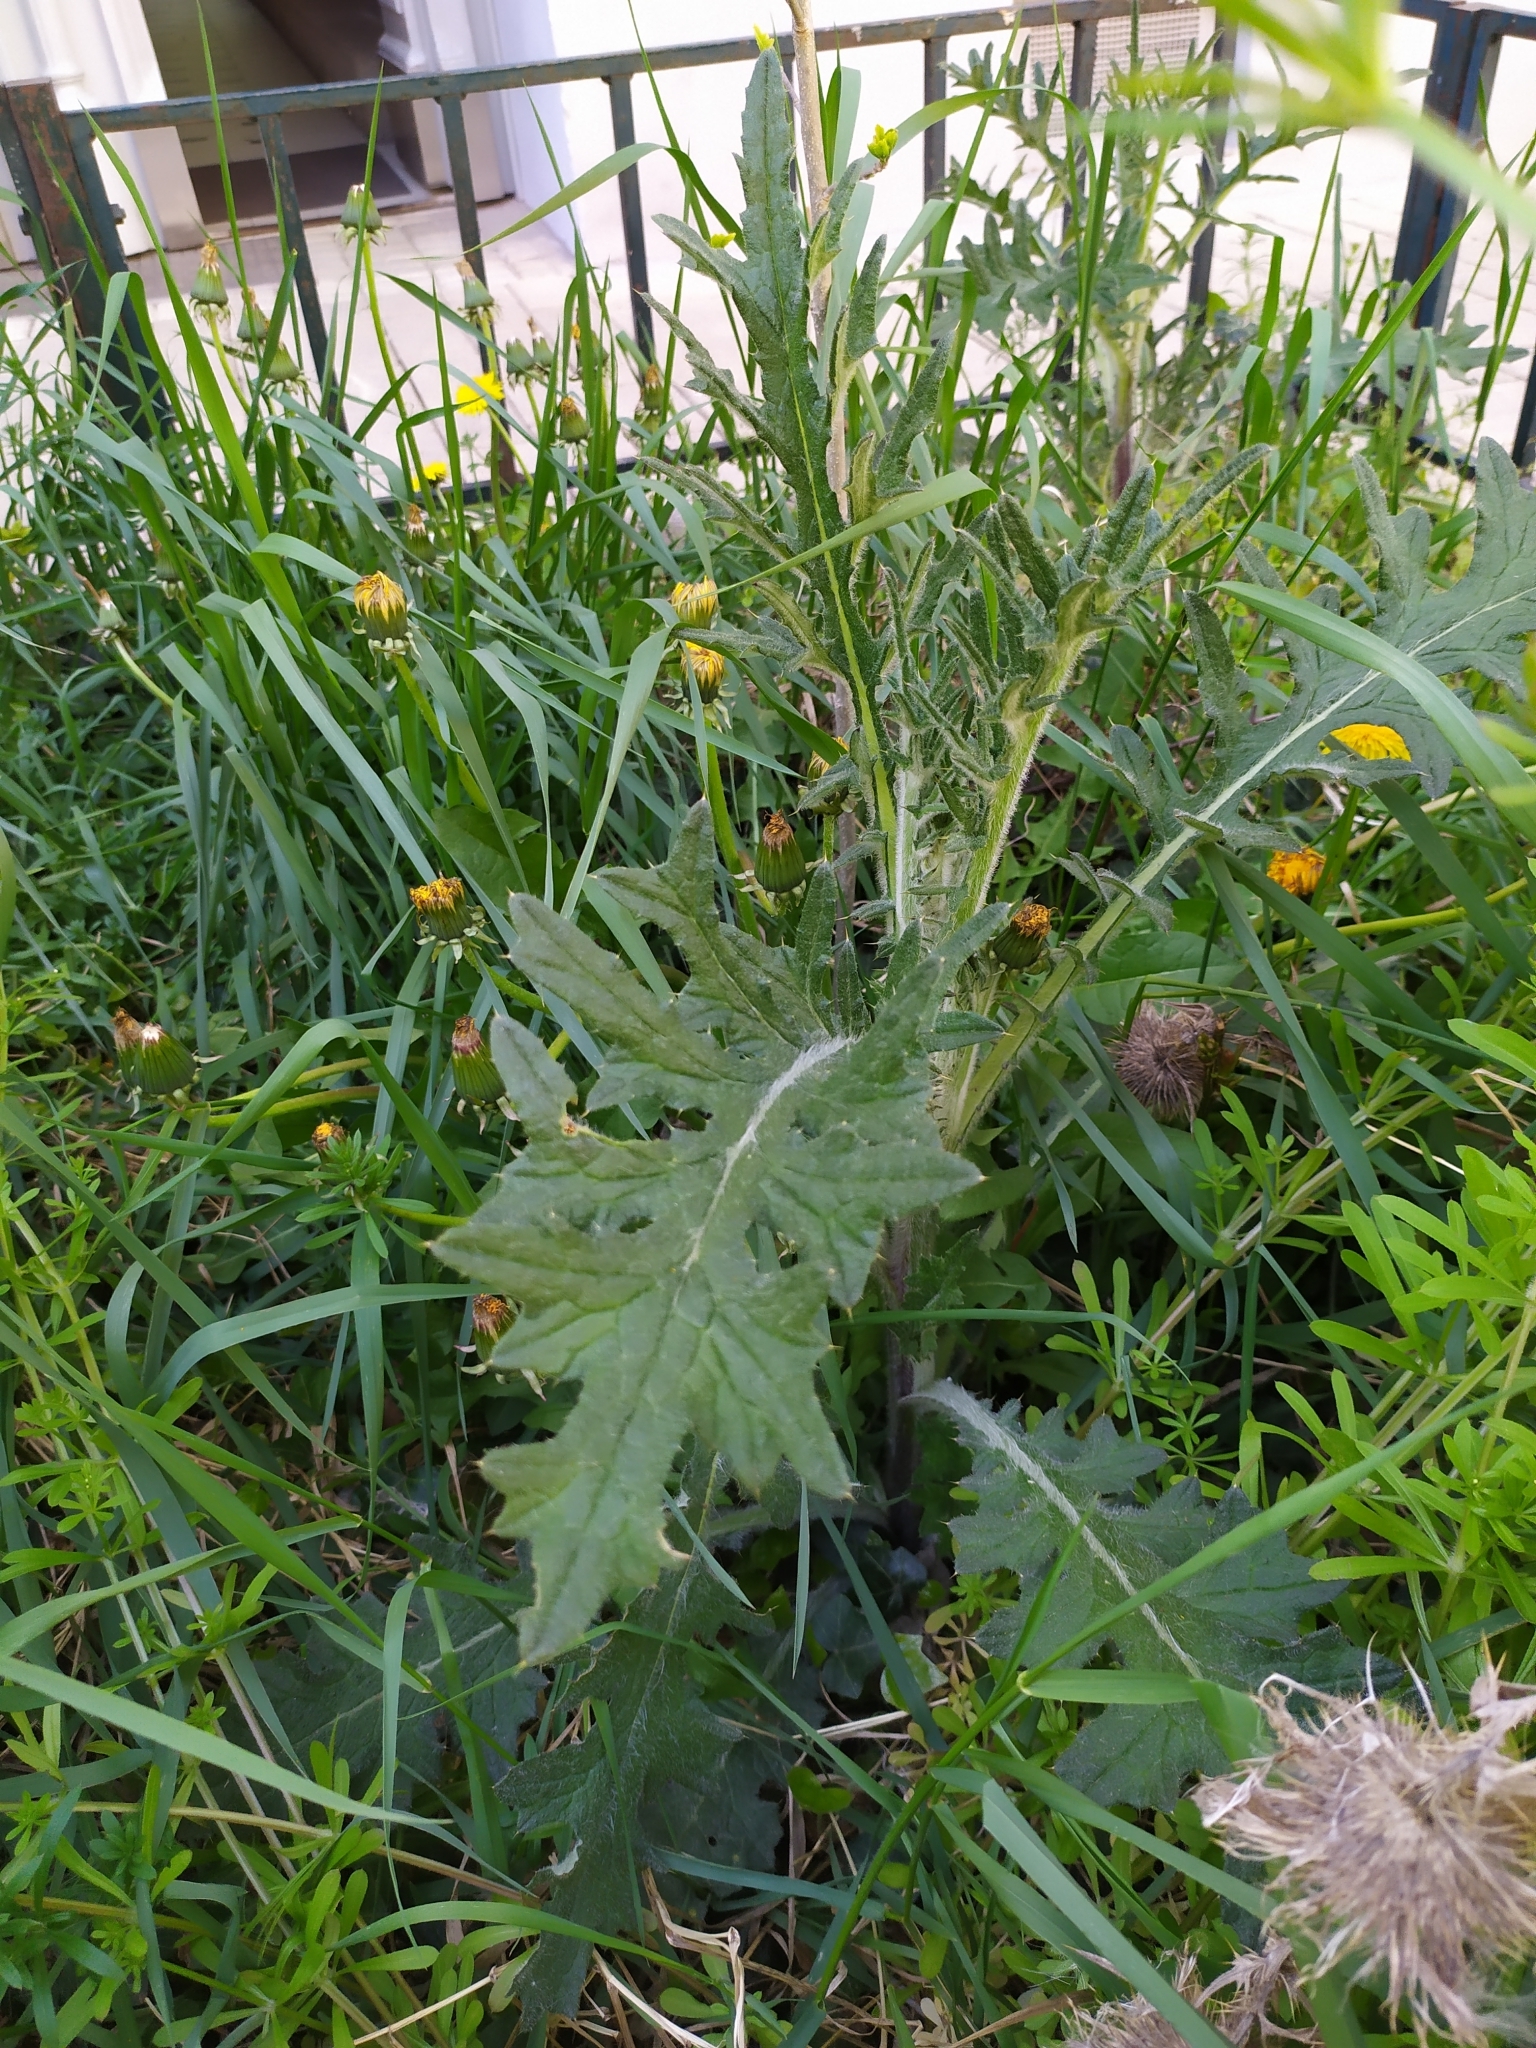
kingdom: Plantae
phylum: Tracheophyta
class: Magnoliopsida
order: Asterales
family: Asteraceae
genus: Cirsium
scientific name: Cirsium vulgare
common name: Bull thistle
